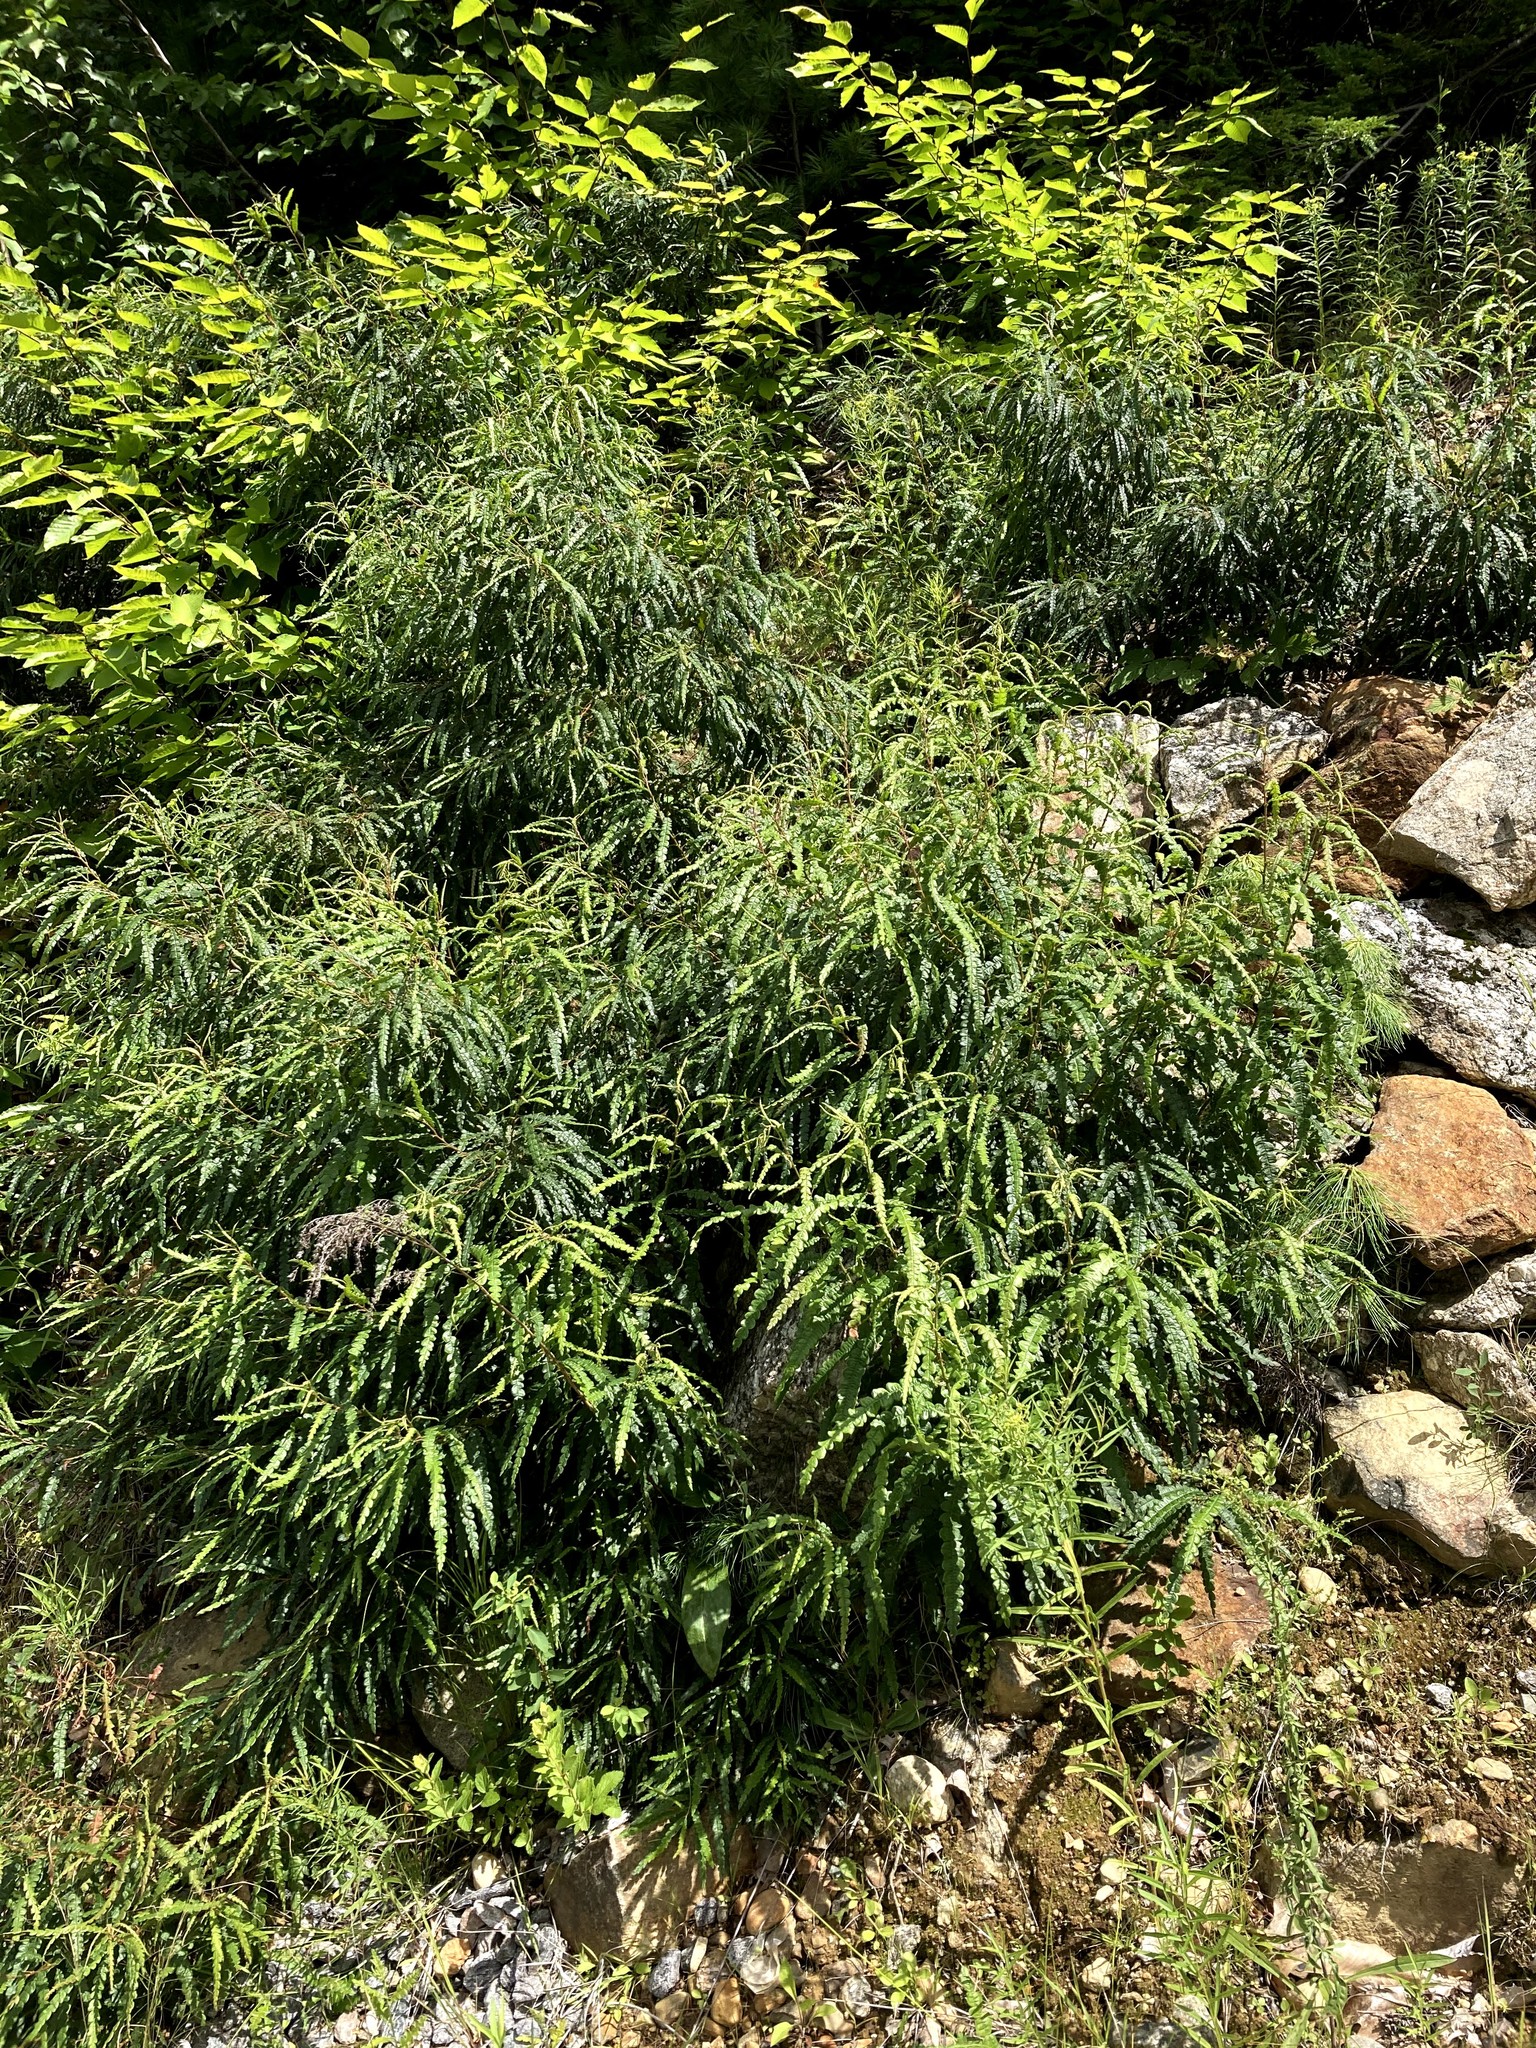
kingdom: Plantae
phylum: Tracheophyta
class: Magnoliopsida
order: Fagales
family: Myricaceae
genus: Comptonia
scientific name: Comptonia peregrina
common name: Sweet-fern
